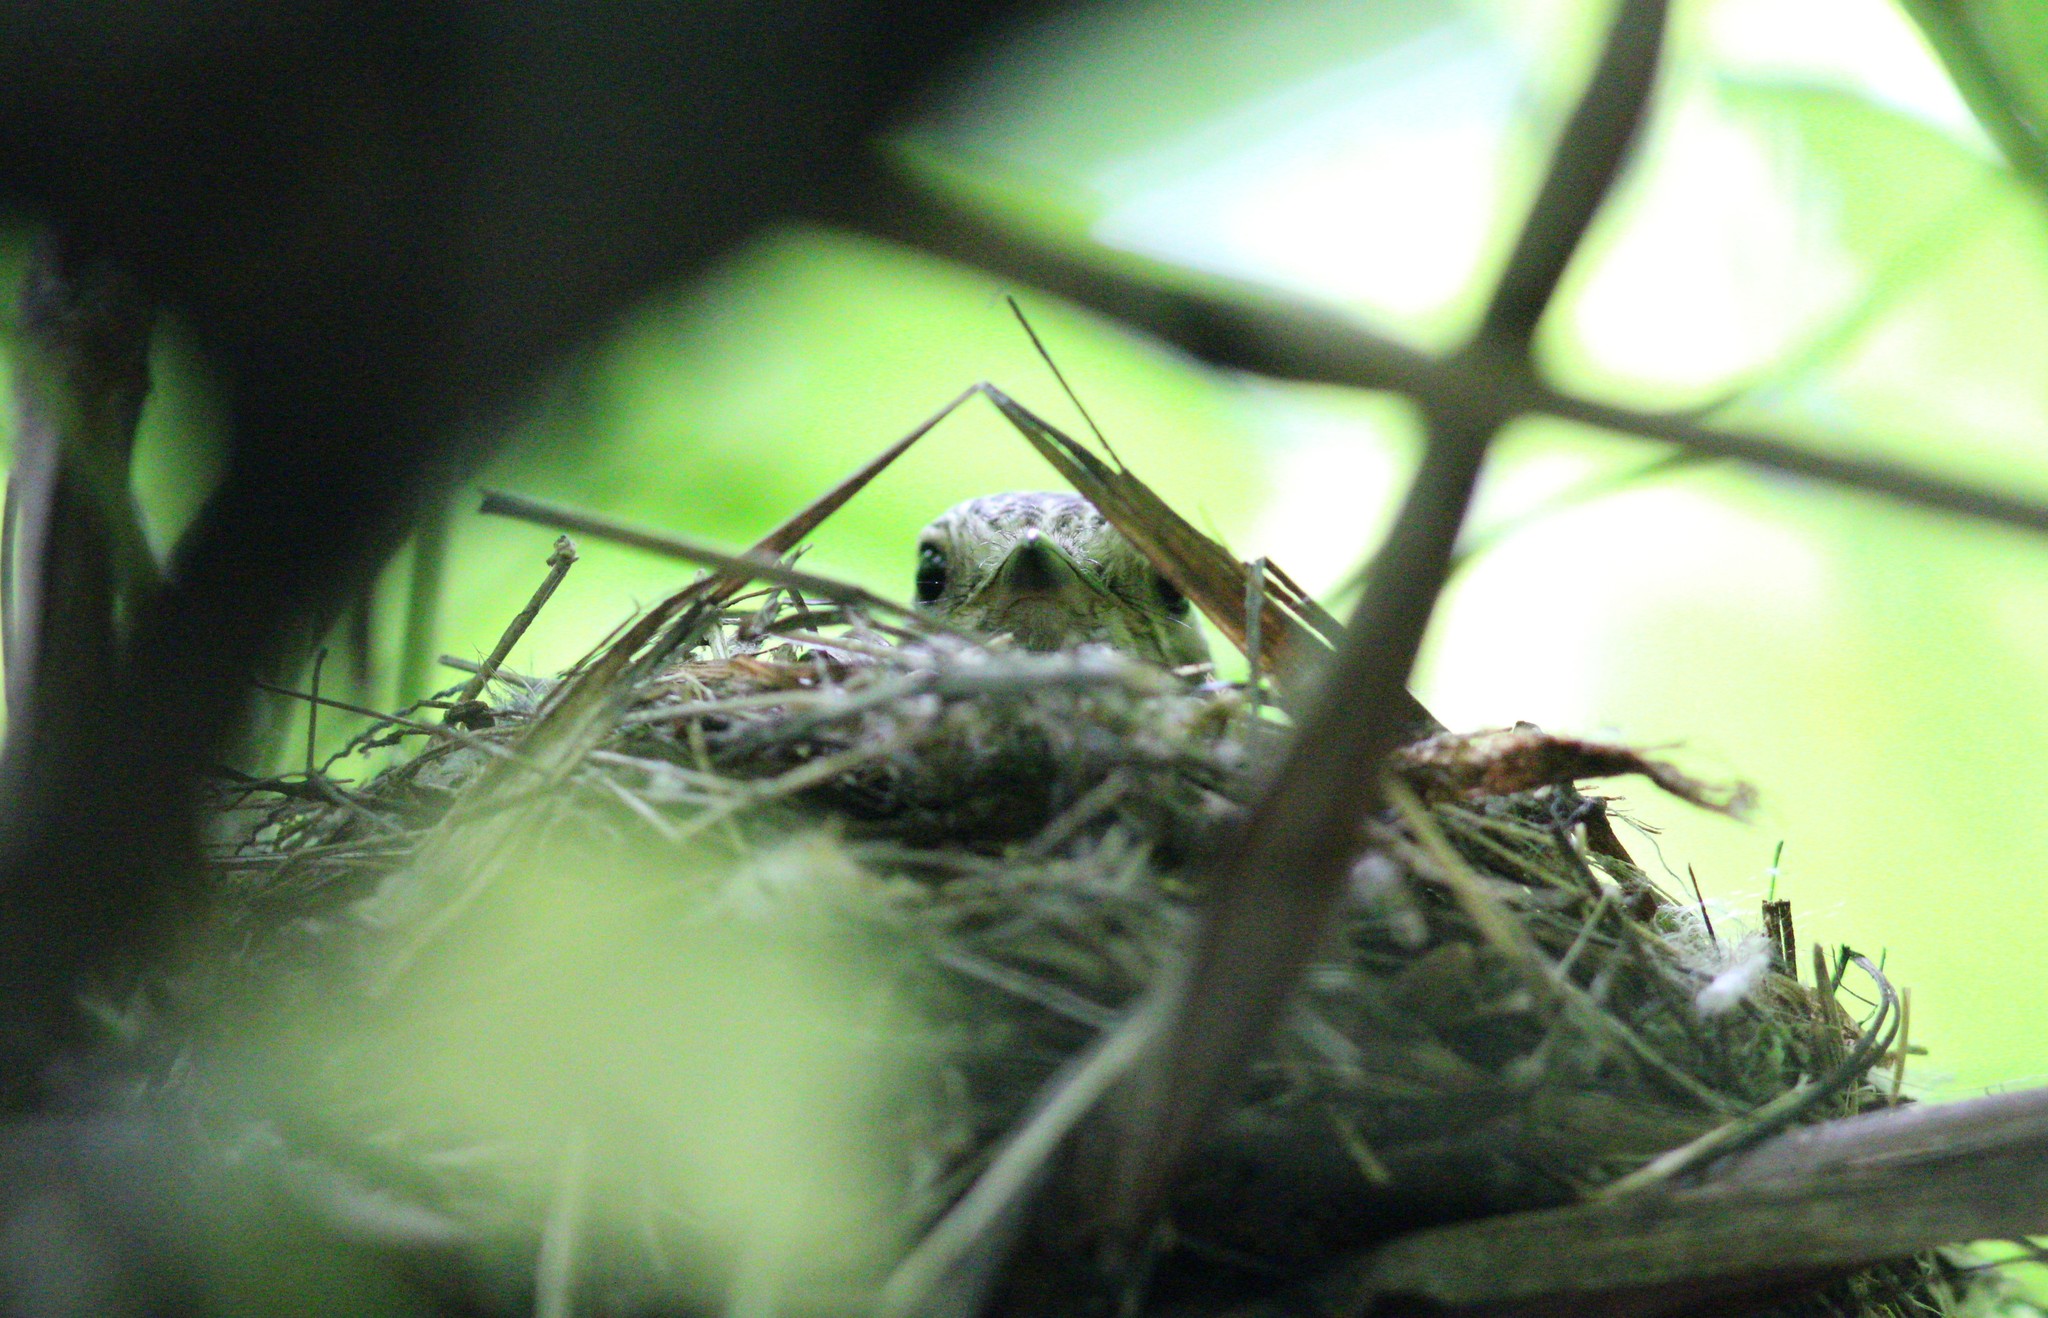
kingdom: Animalia
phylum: Chordata
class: Aves
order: Passeriformes
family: Muscicapidae
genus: Muscicapa
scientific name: Muscicapa striata
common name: Spotted flycatcher
